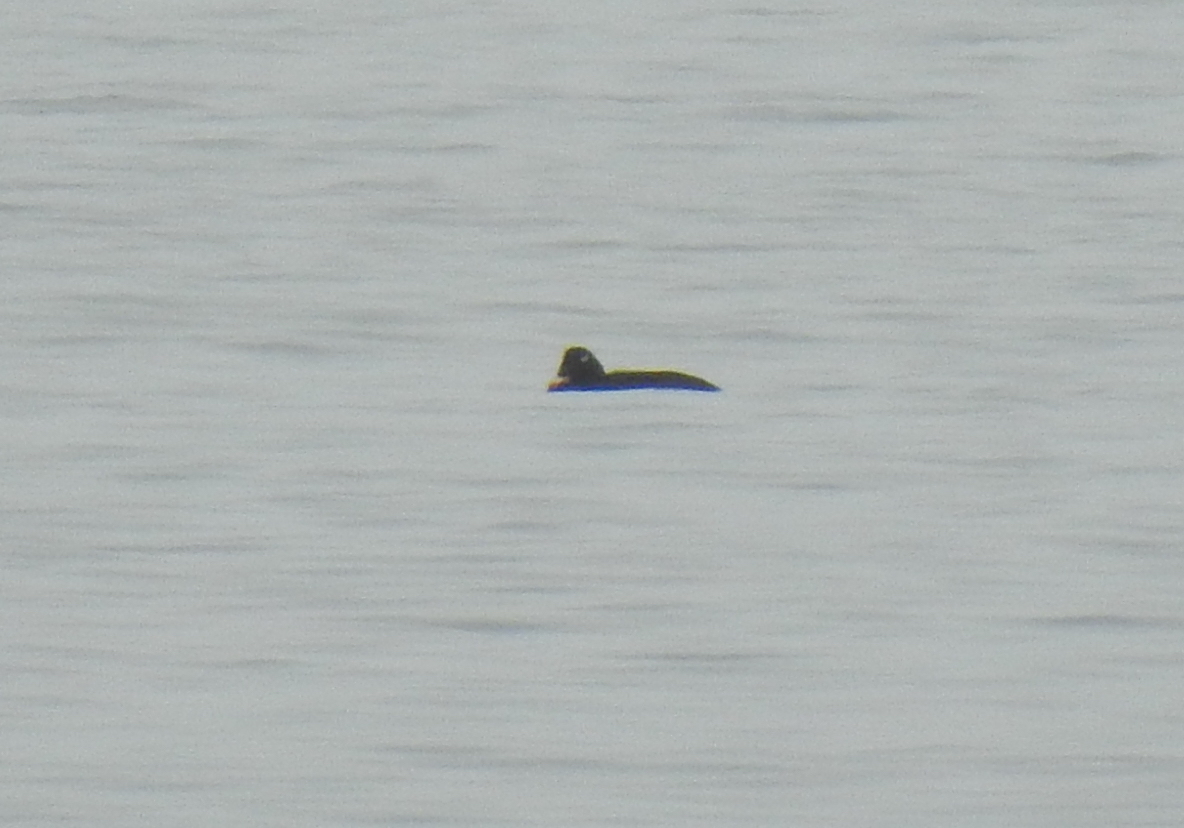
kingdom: Animalia
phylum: Chordata
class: Aves
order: Anseriformes
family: Anatidae
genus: Melanitta
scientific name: Melanitta deglandi
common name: White-winged scoter
